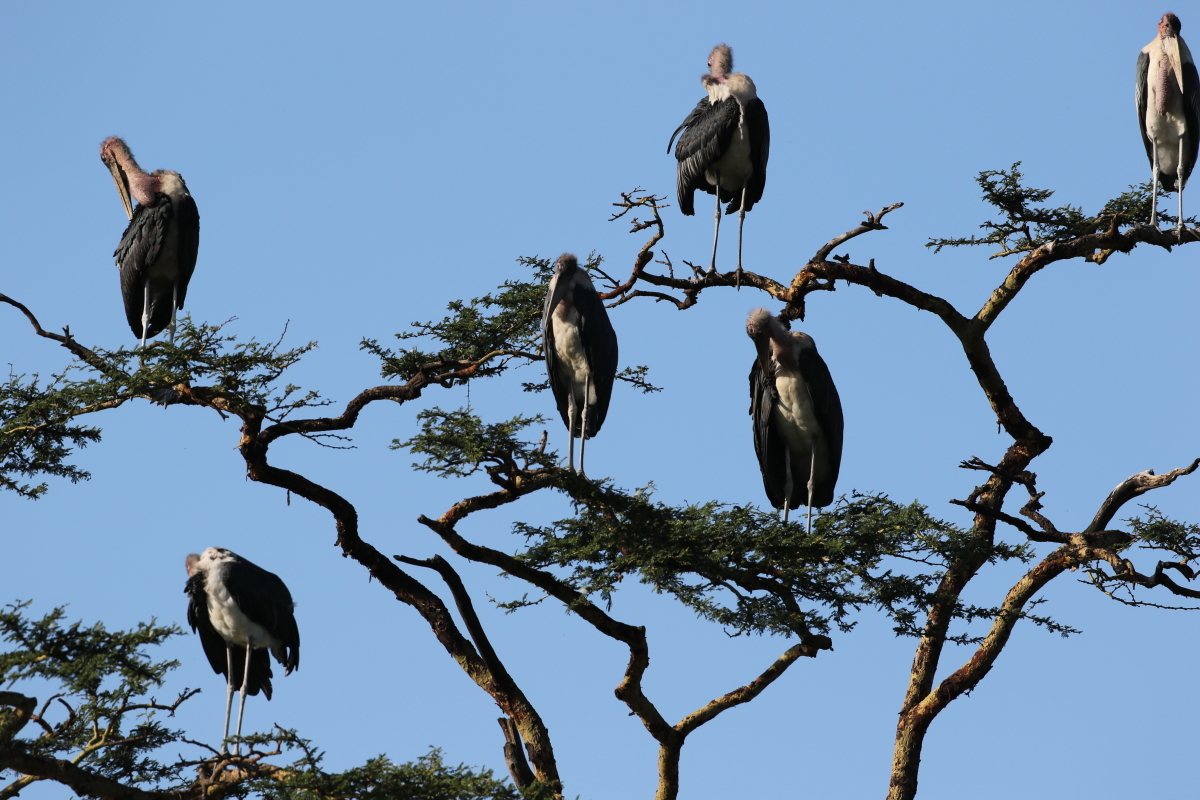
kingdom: Animalia
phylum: Chordata
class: Aves
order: Ciconiiformes
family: Ciconiidae
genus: Leptoptilos
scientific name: Leptoptilos crumenifer
